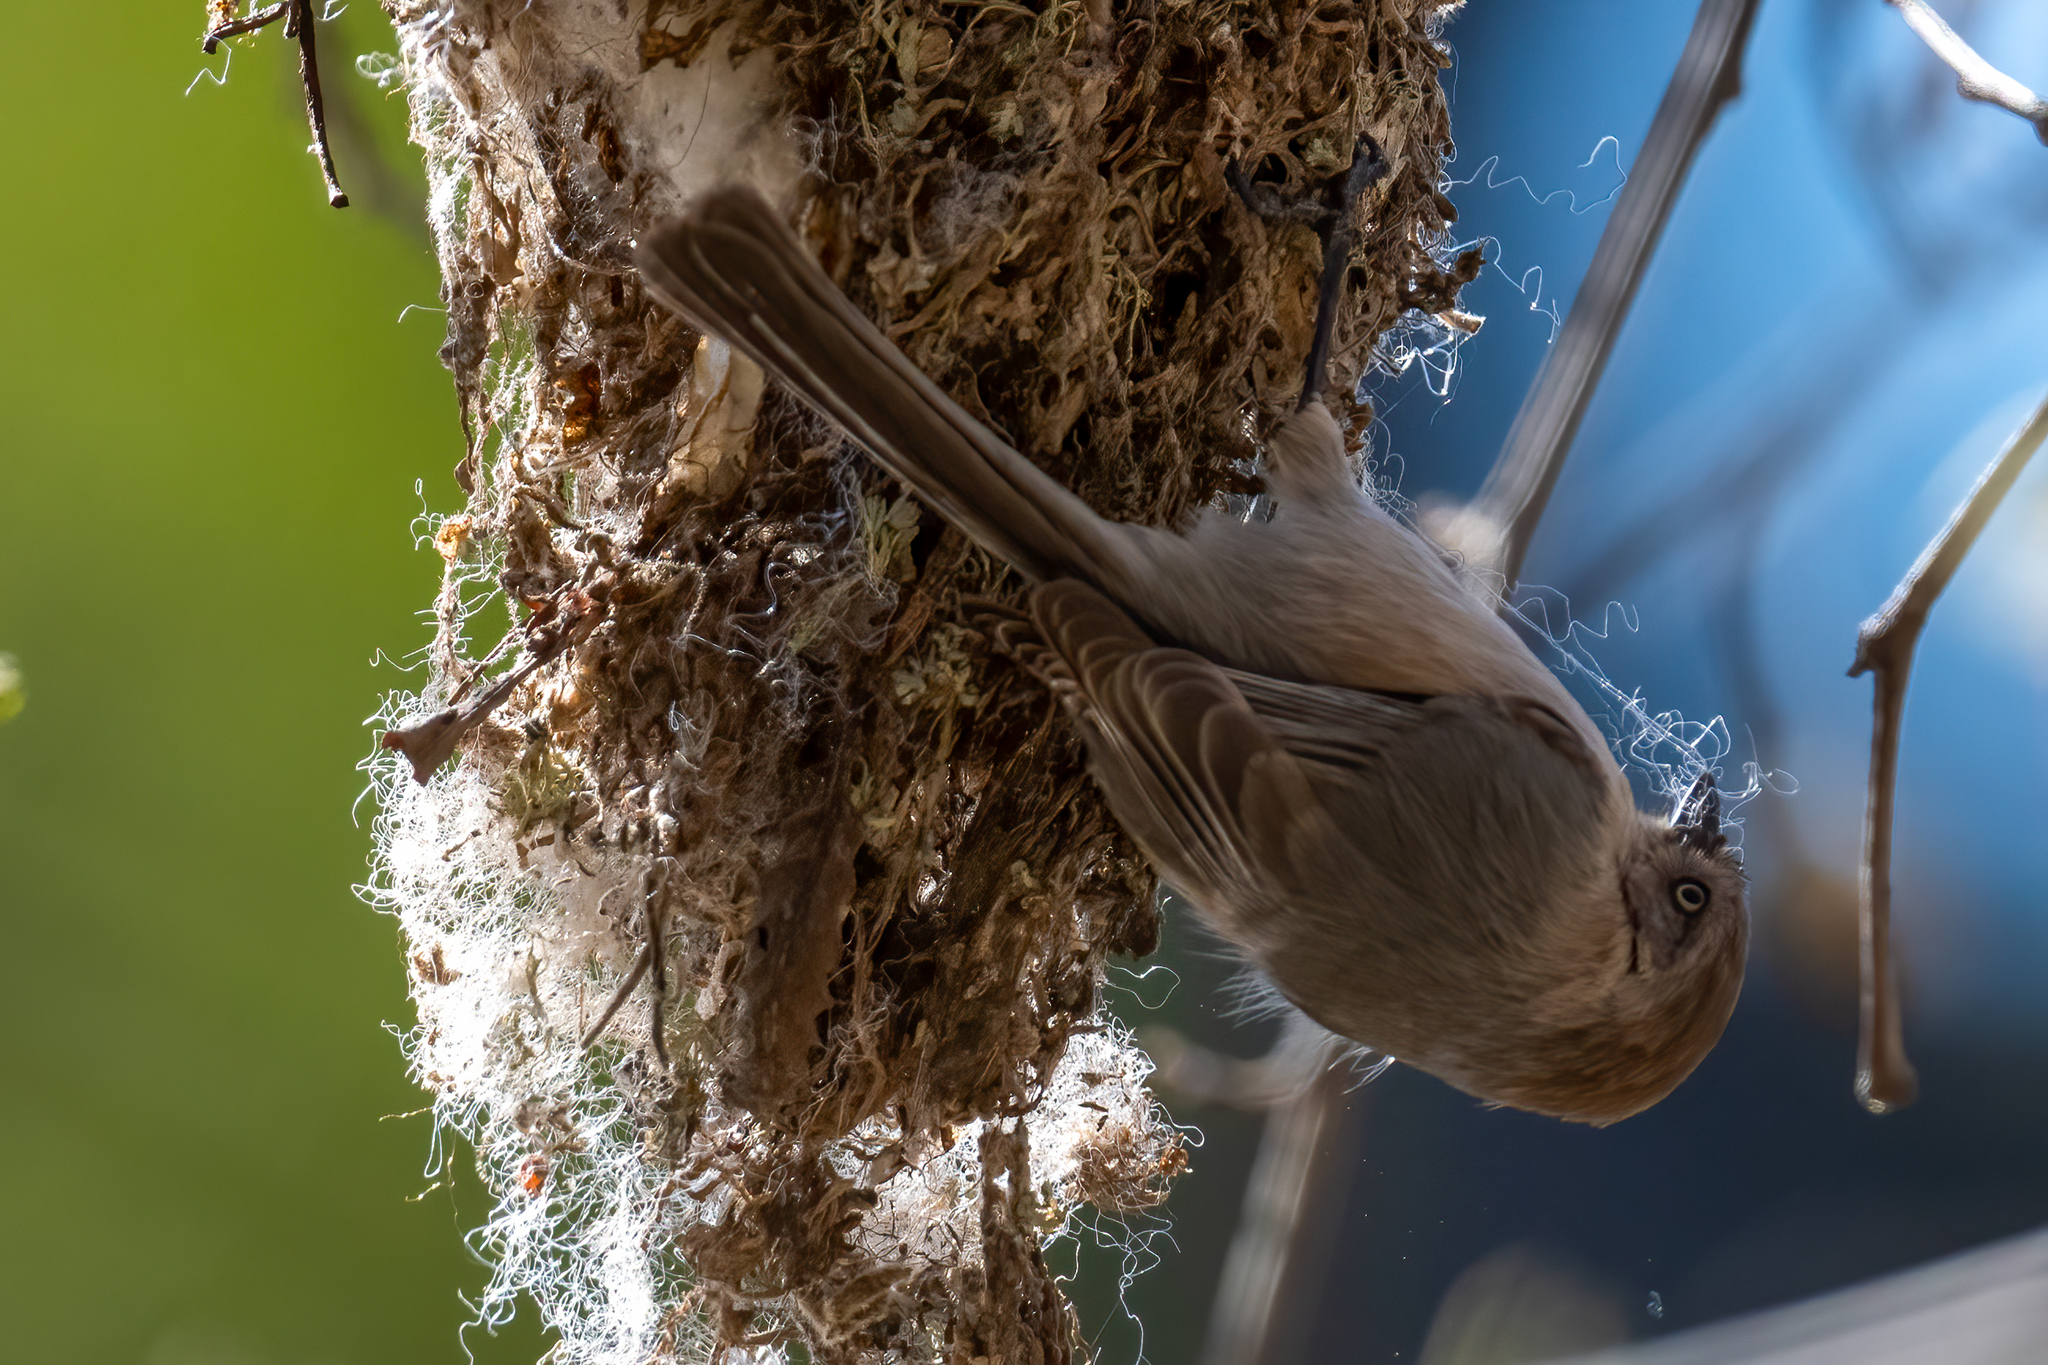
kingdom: Animalia
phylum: Chordata
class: Aves
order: Passeriformes
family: Aegithalidae
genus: Psaltriparus
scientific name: Psaltriparus minimus
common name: American bushtit
